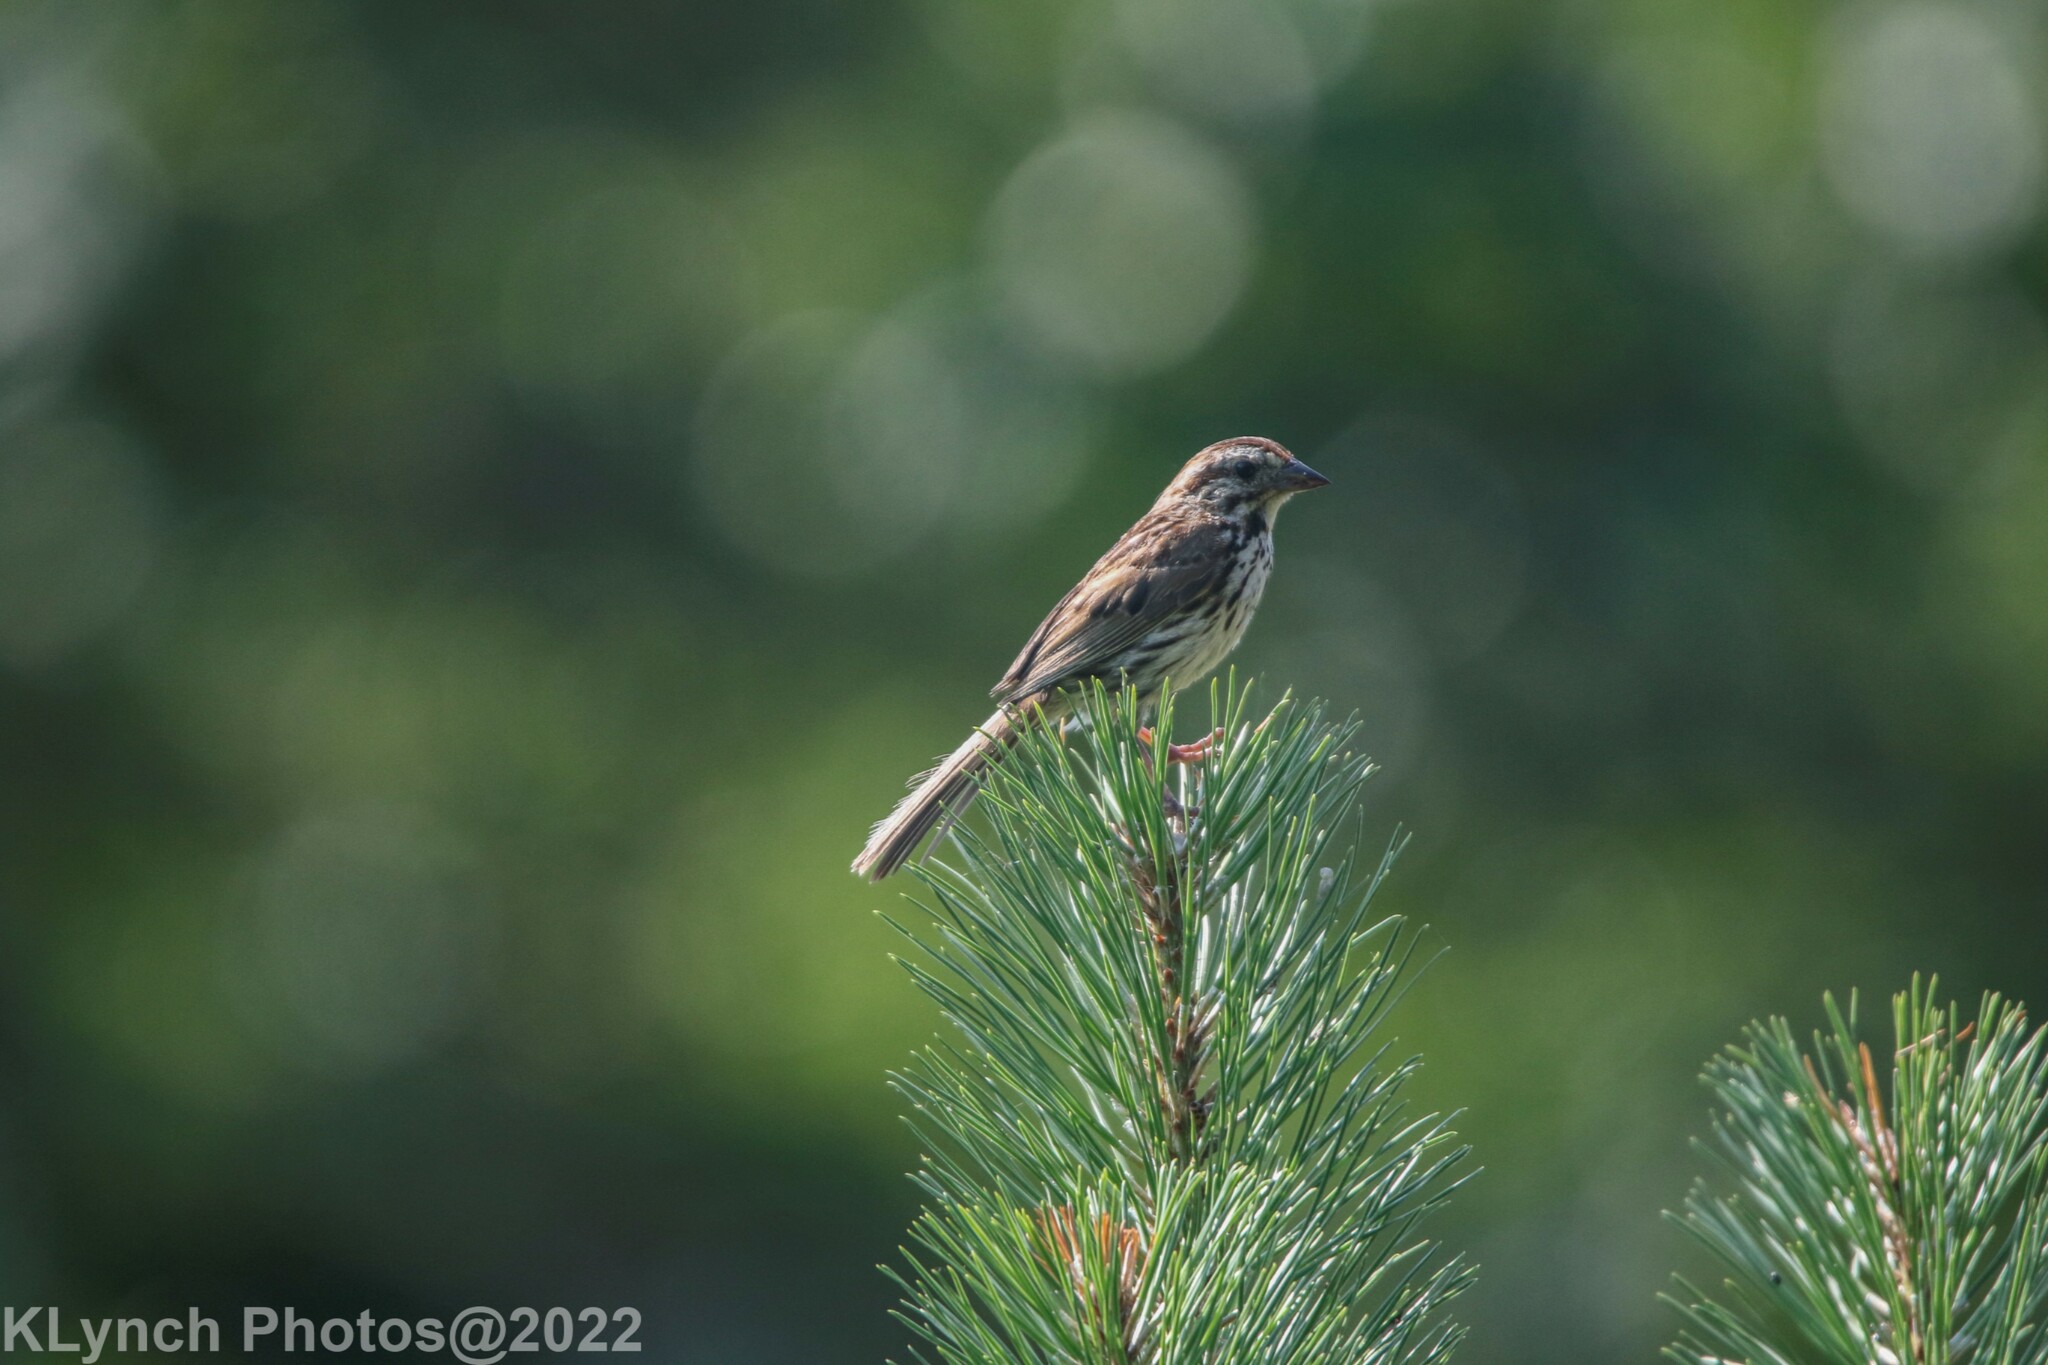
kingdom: Animalia
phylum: Chordata
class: Aves
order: Passeriformes
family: Passerellidae
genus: Melospiza
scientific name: Melospiza melodia
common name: Song sparrow
